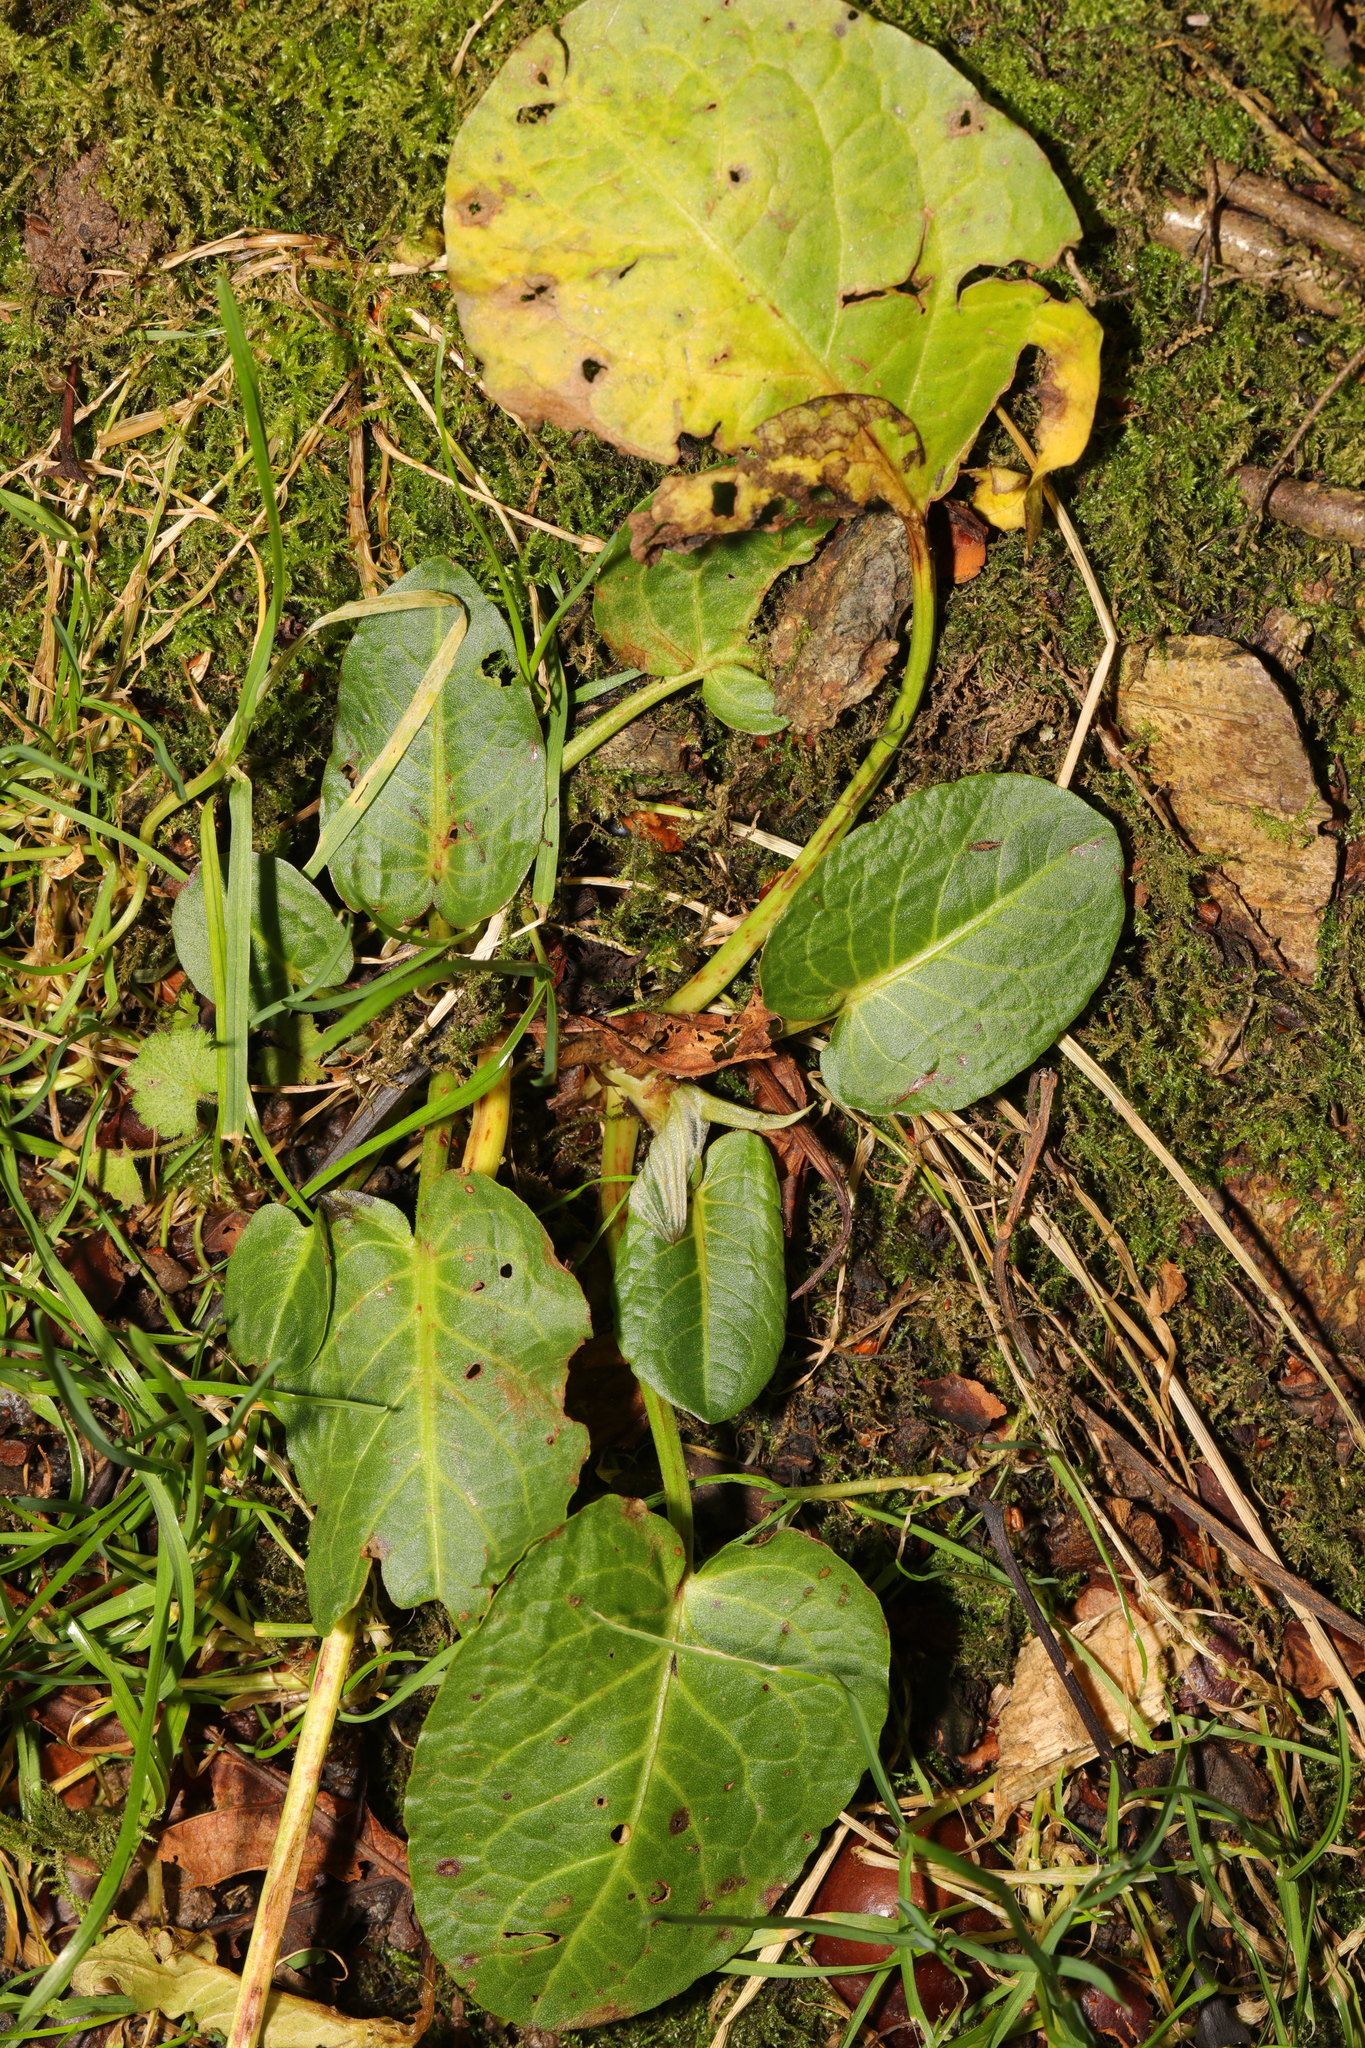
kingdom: Plantae
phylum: Tracheophyta
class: Magnoliopsida
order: Caryophyllales
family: Polygonaceae
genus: Rumex
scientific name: Rumex obtusifolius
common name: Bitter dock
